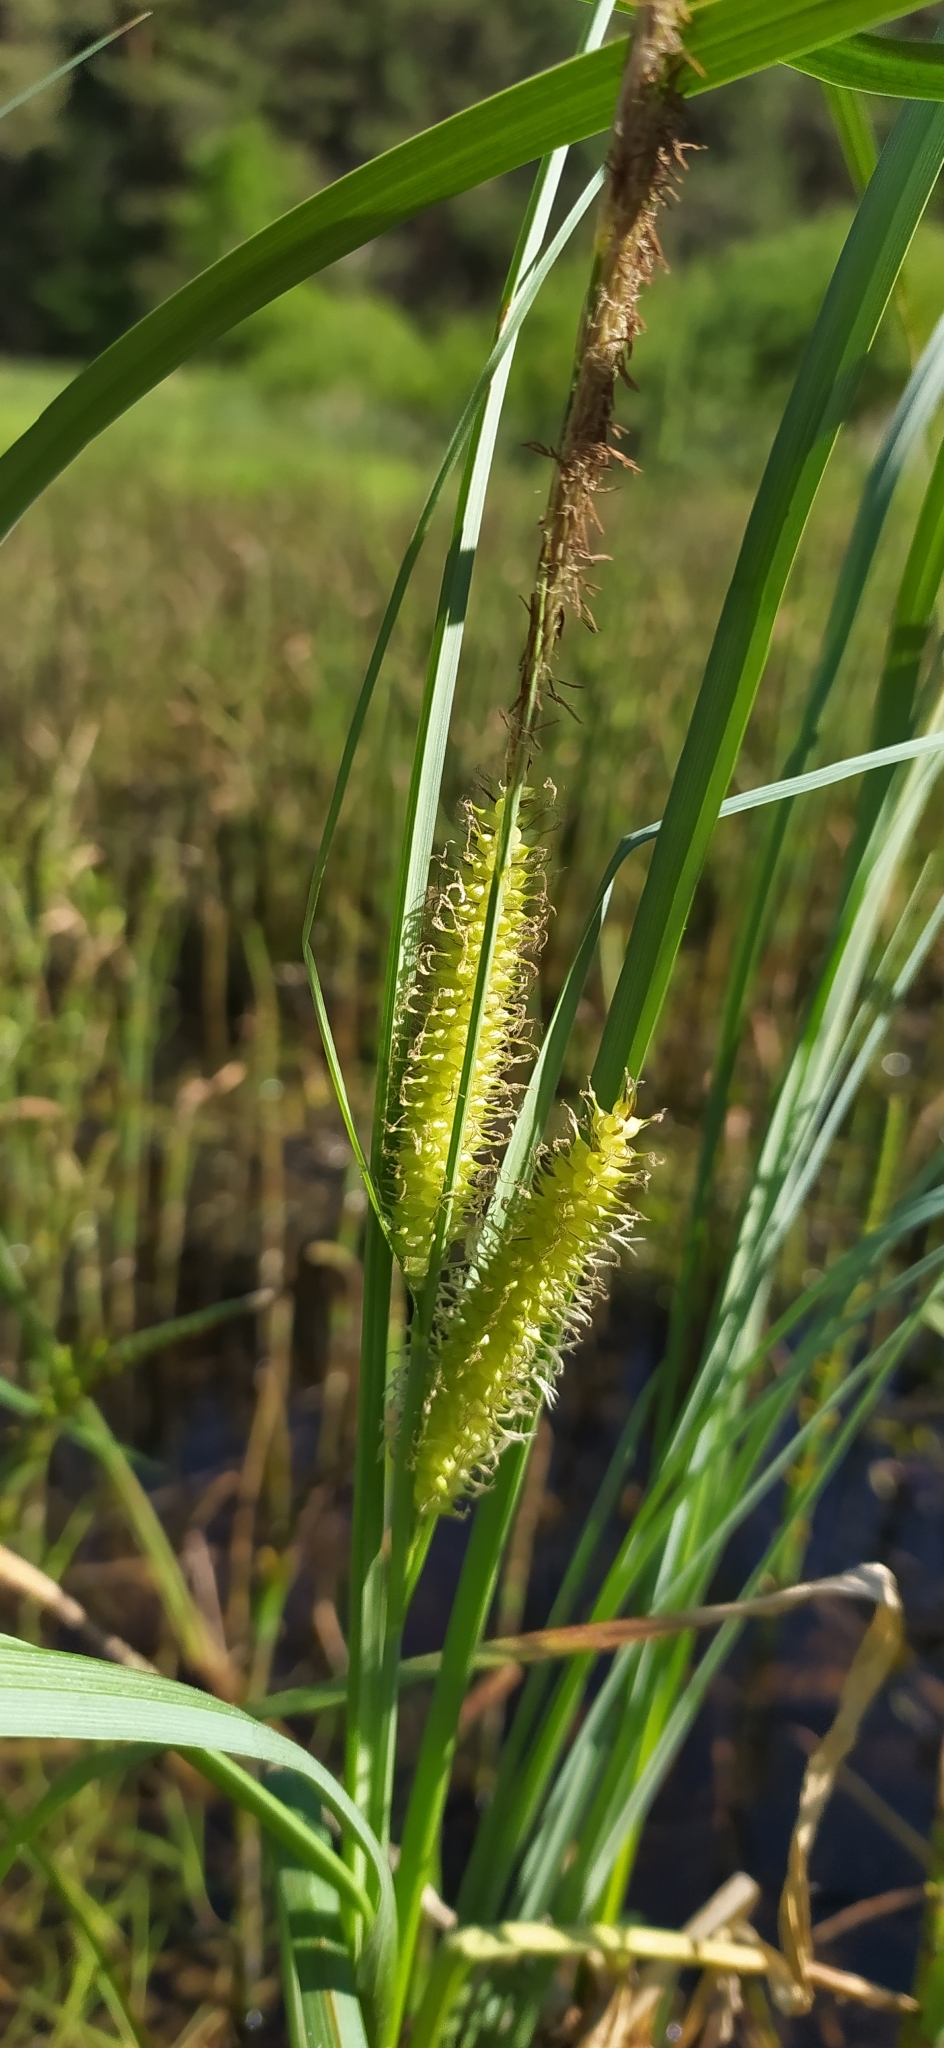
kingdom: Plantae
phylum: Tracheophyta
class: Liliopsida
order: Poales
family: Cyperaceae
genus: Carex
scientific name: Carex rostrata
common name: Bottle sedge
